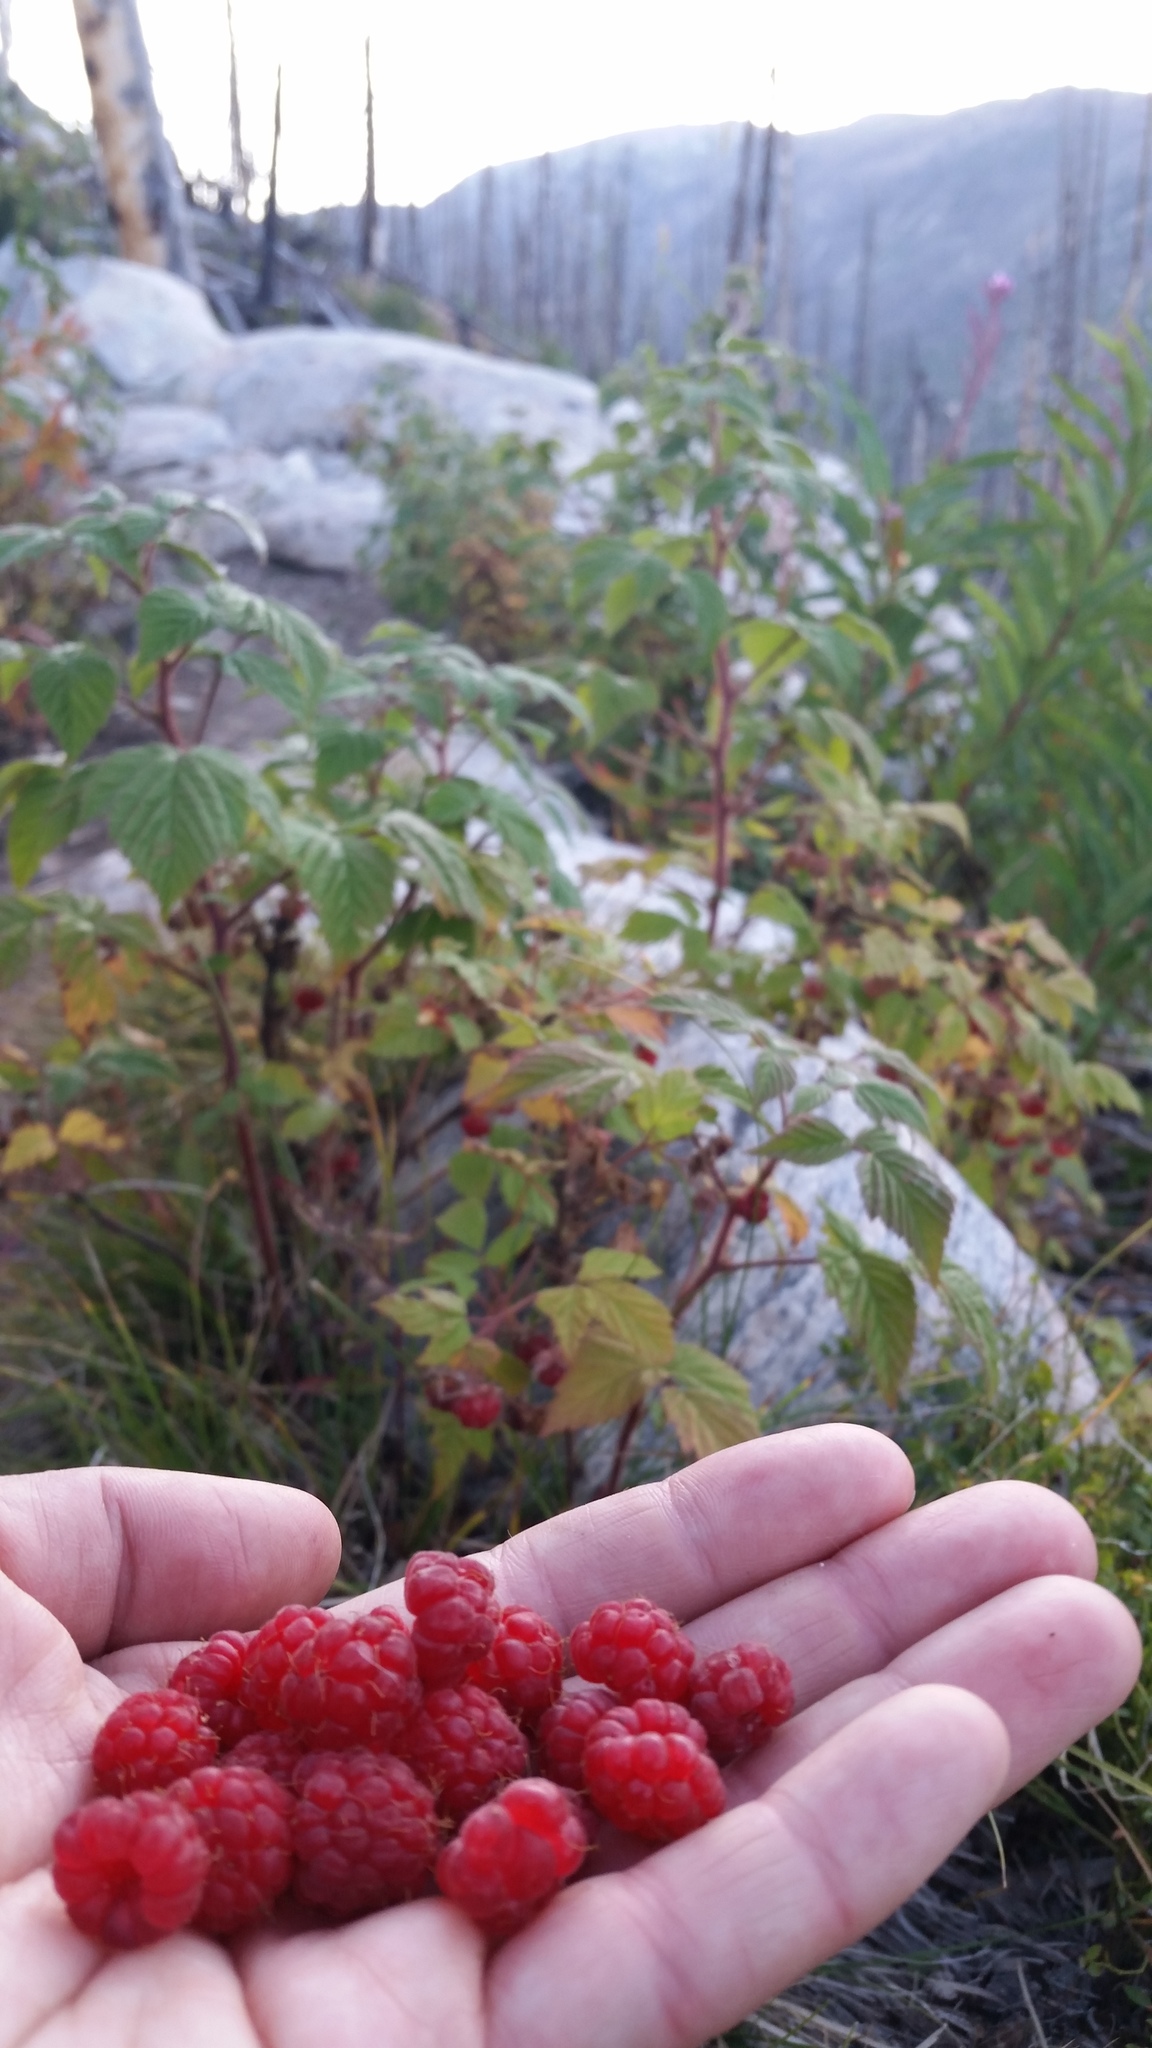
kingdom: Plantae
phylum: Tracheophyta
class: Magnoliopsida
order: Rosales
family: Rosaceae
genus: Rubus
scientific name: Rubus idaeus
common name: Raspberry
